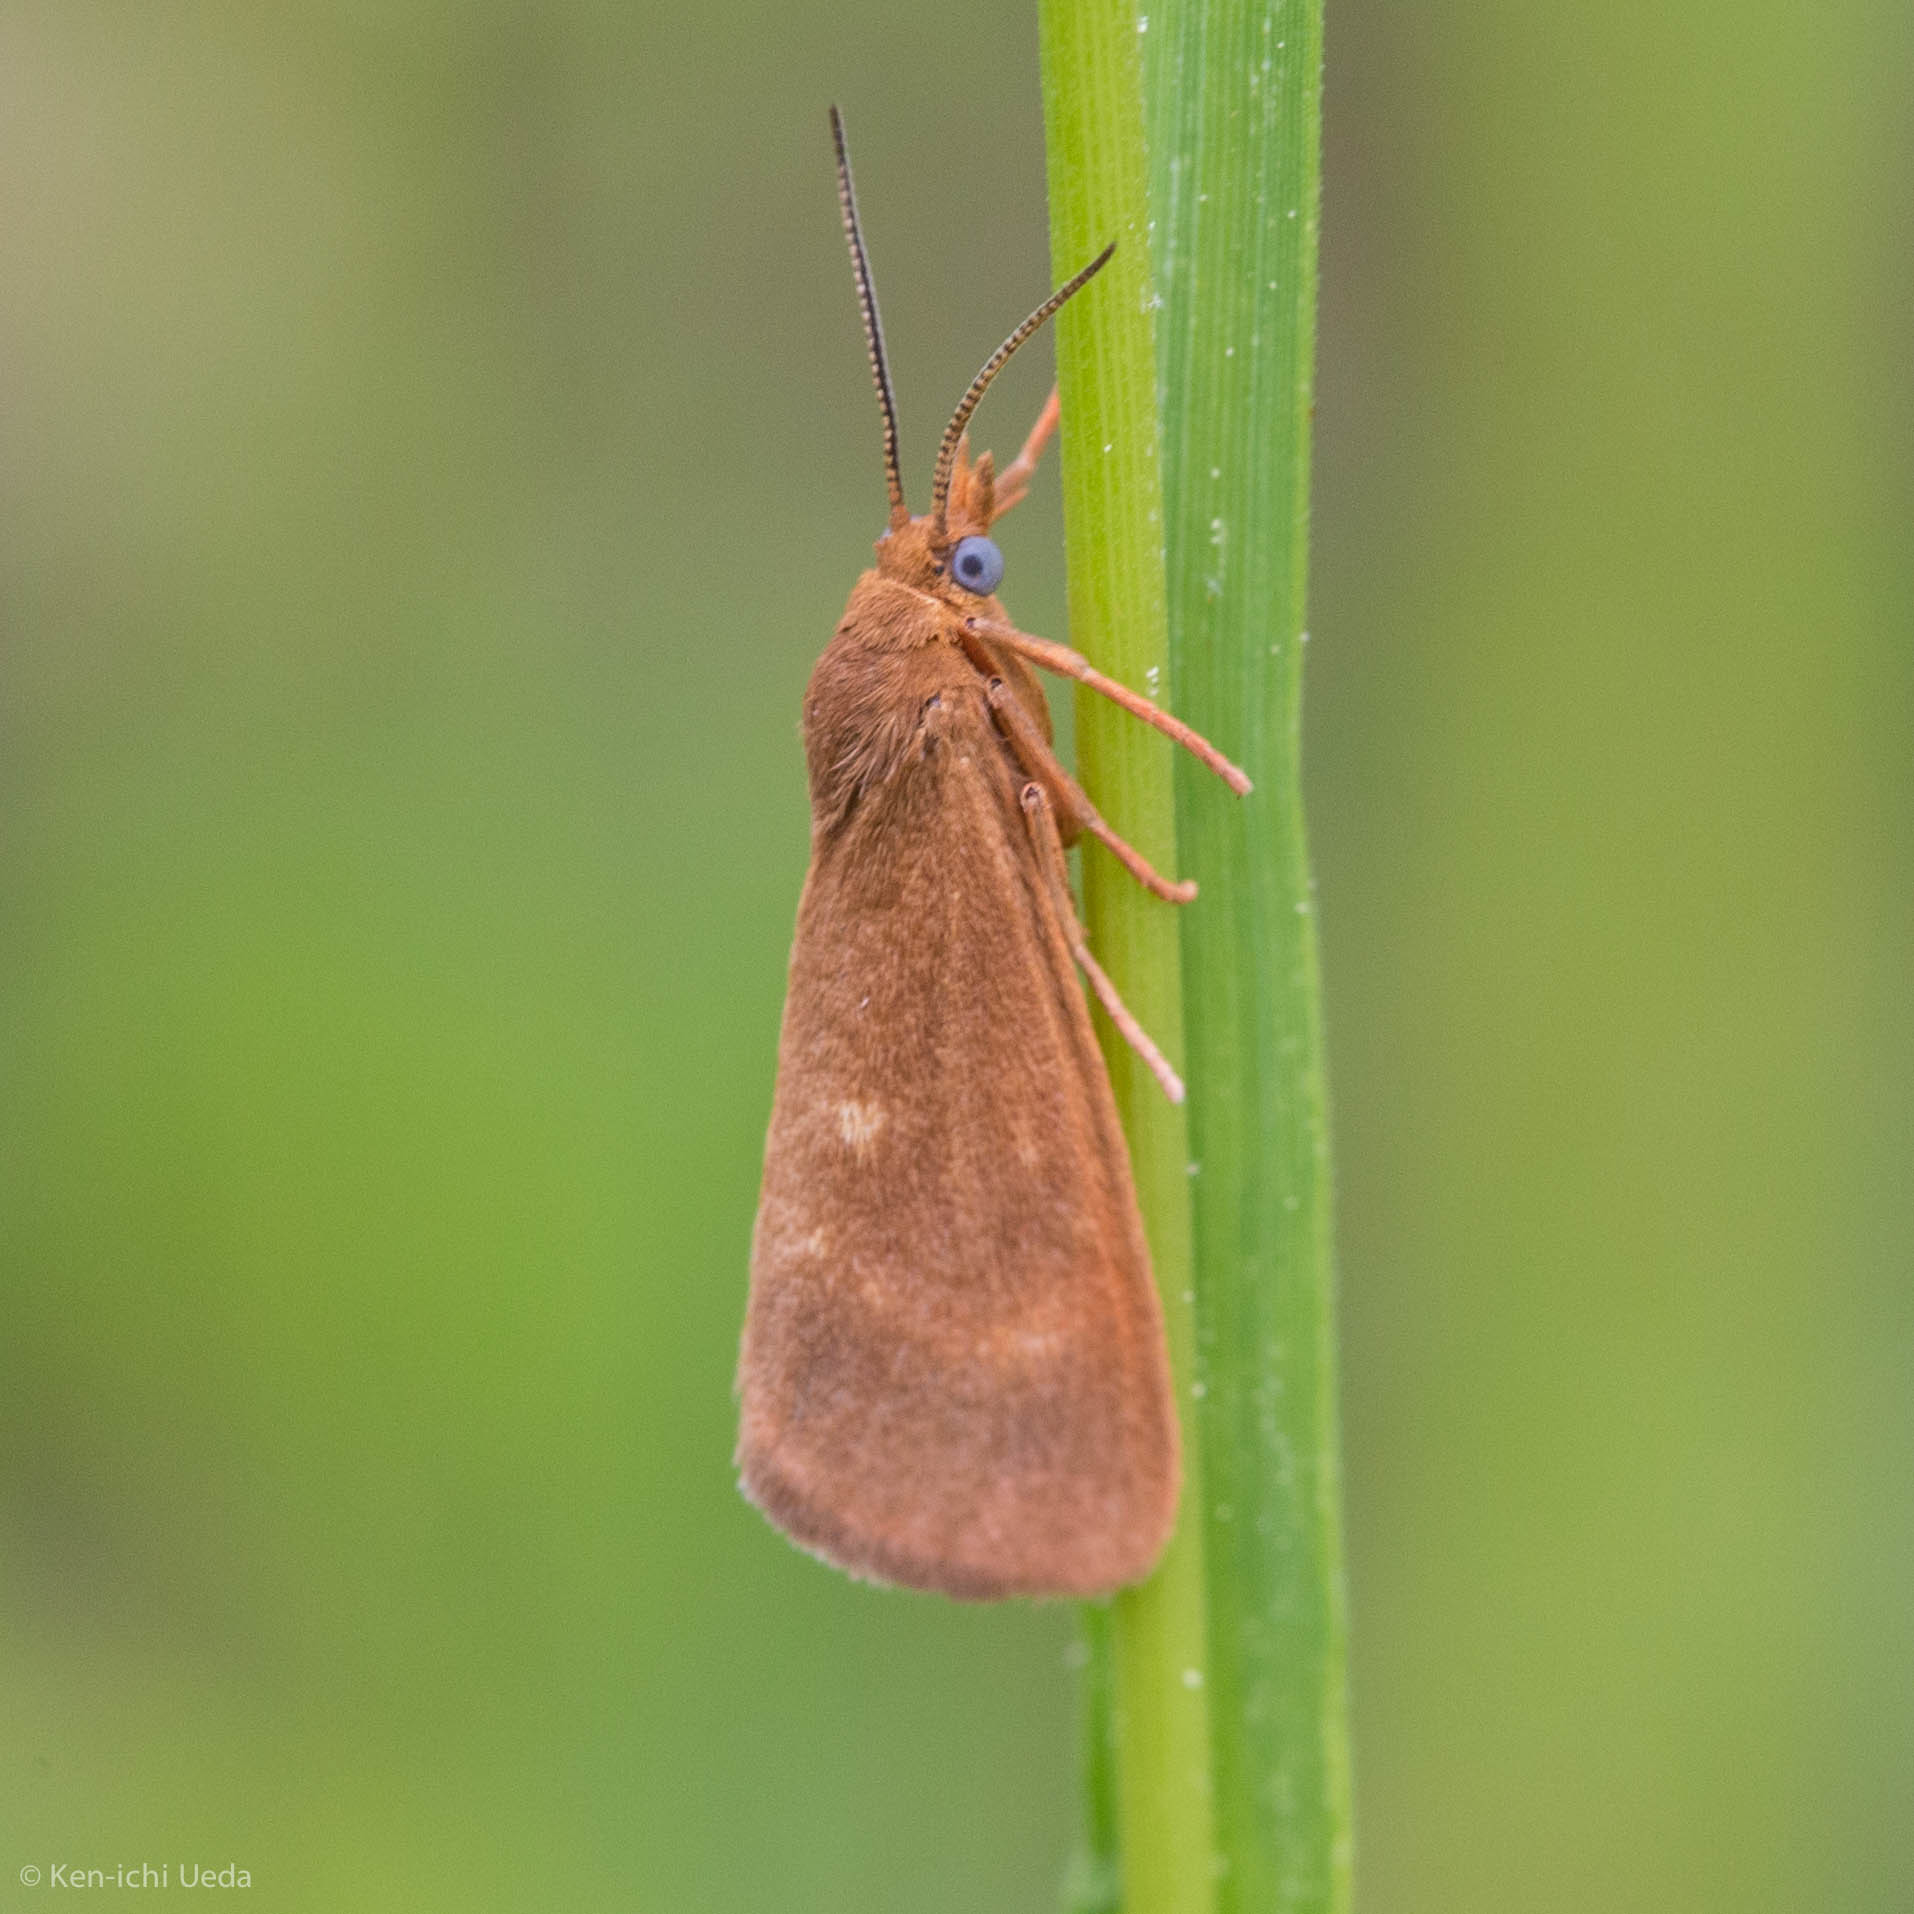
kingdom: Animalia
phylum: Arthropoda
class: Insecta
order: Lepidoptera
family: Erebidae
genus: Virbia
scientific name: Virbia aurantiaca
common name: Orange virbia moth
